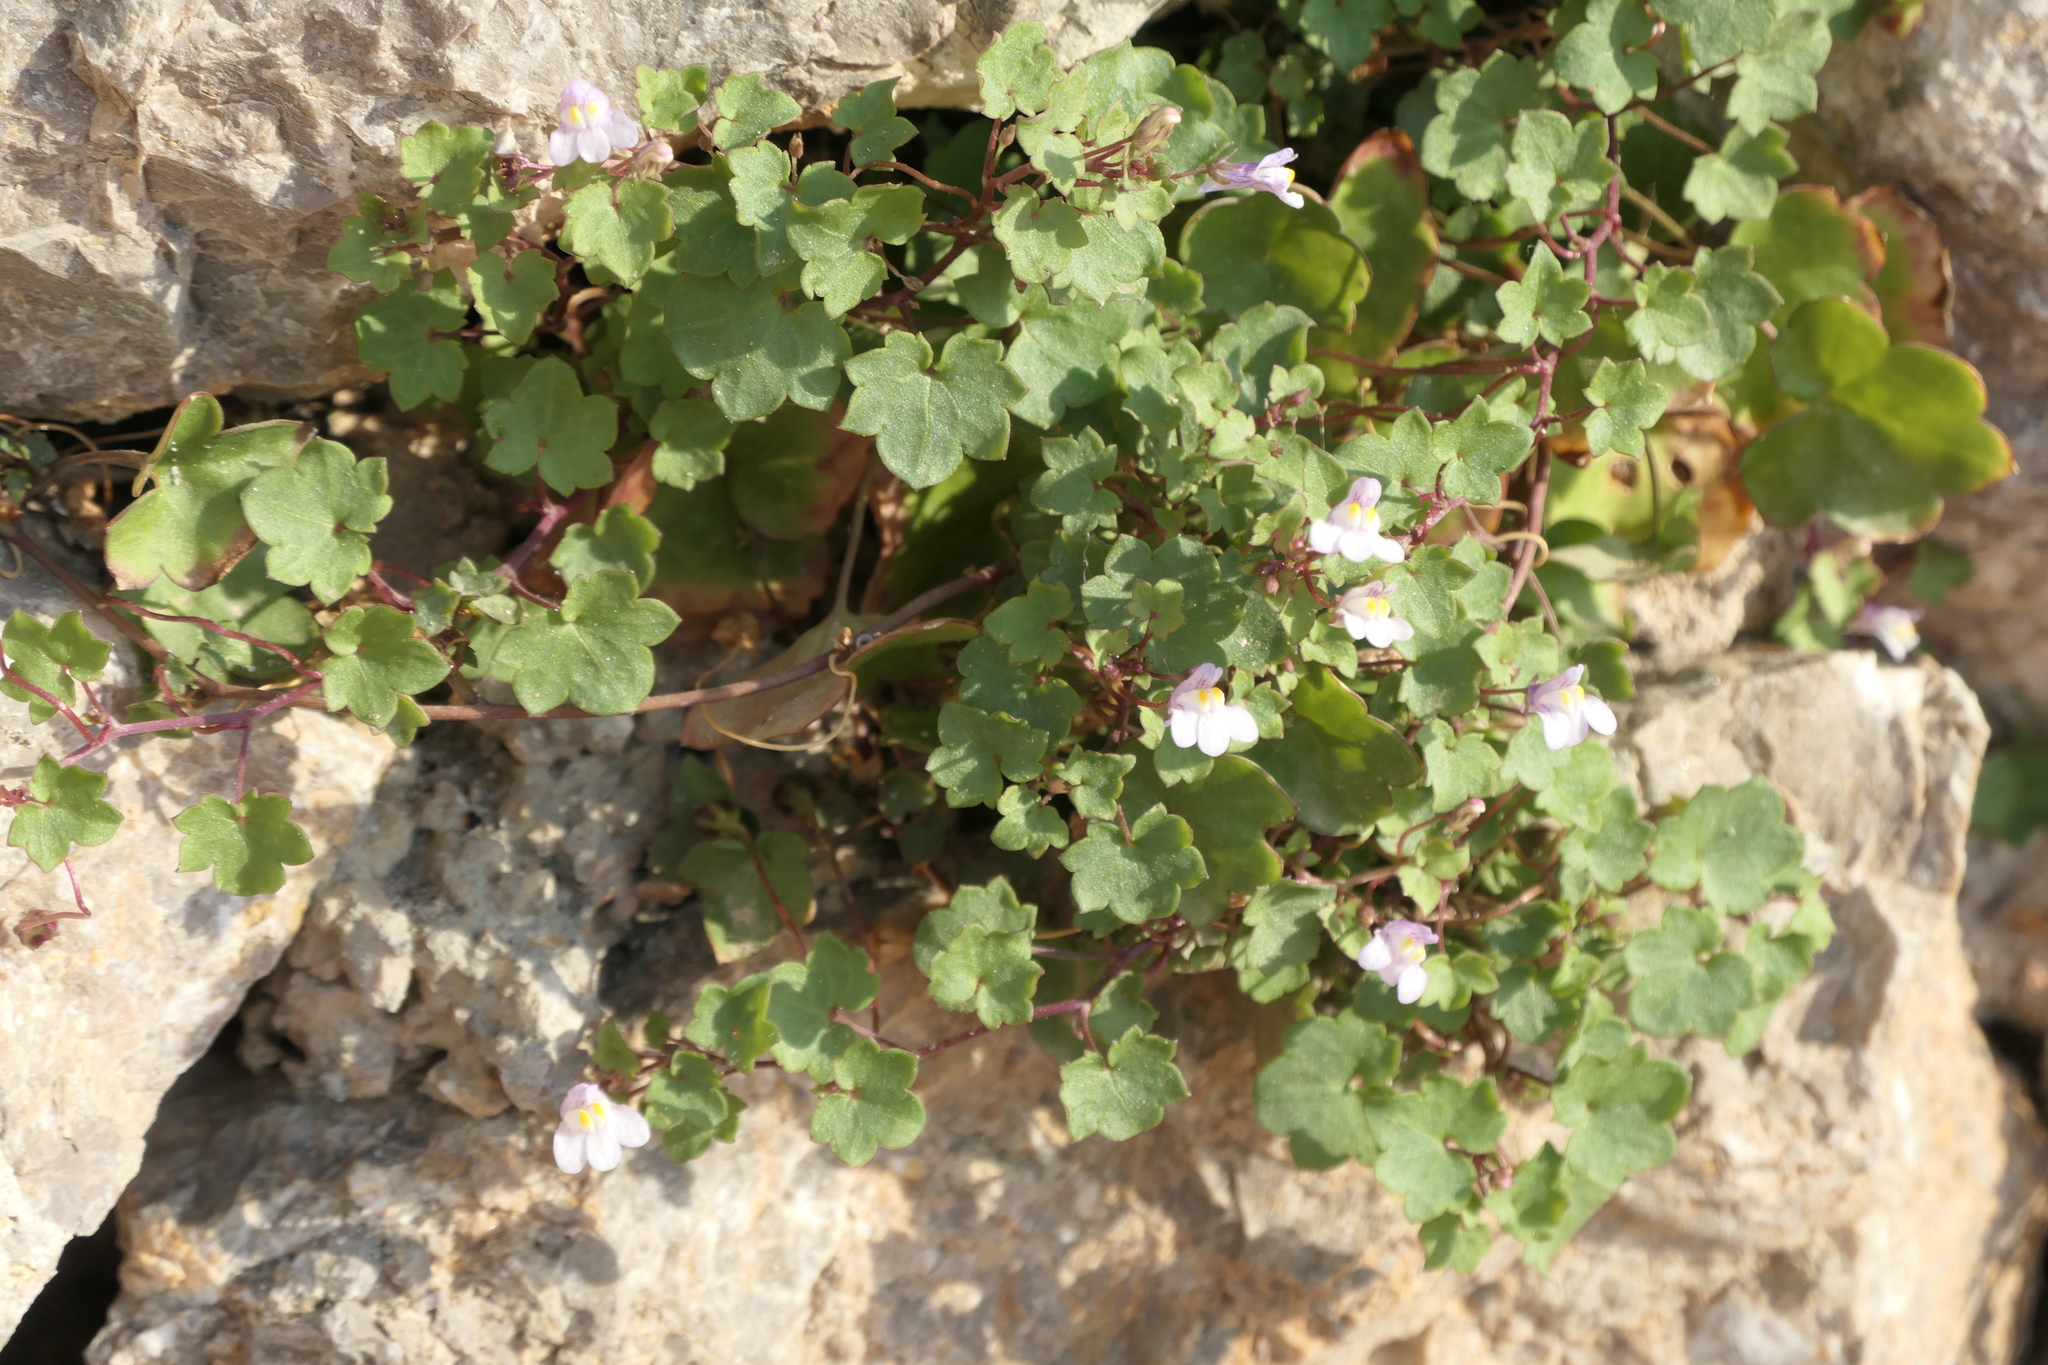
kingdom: Plantae
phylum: Tracheophyta
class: Magnoliopsida
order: Lamiales
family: Plantaginaceae
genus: Cymbalaria
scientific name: Cymbalaria muralis
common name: Ivy-leaved toadflax
